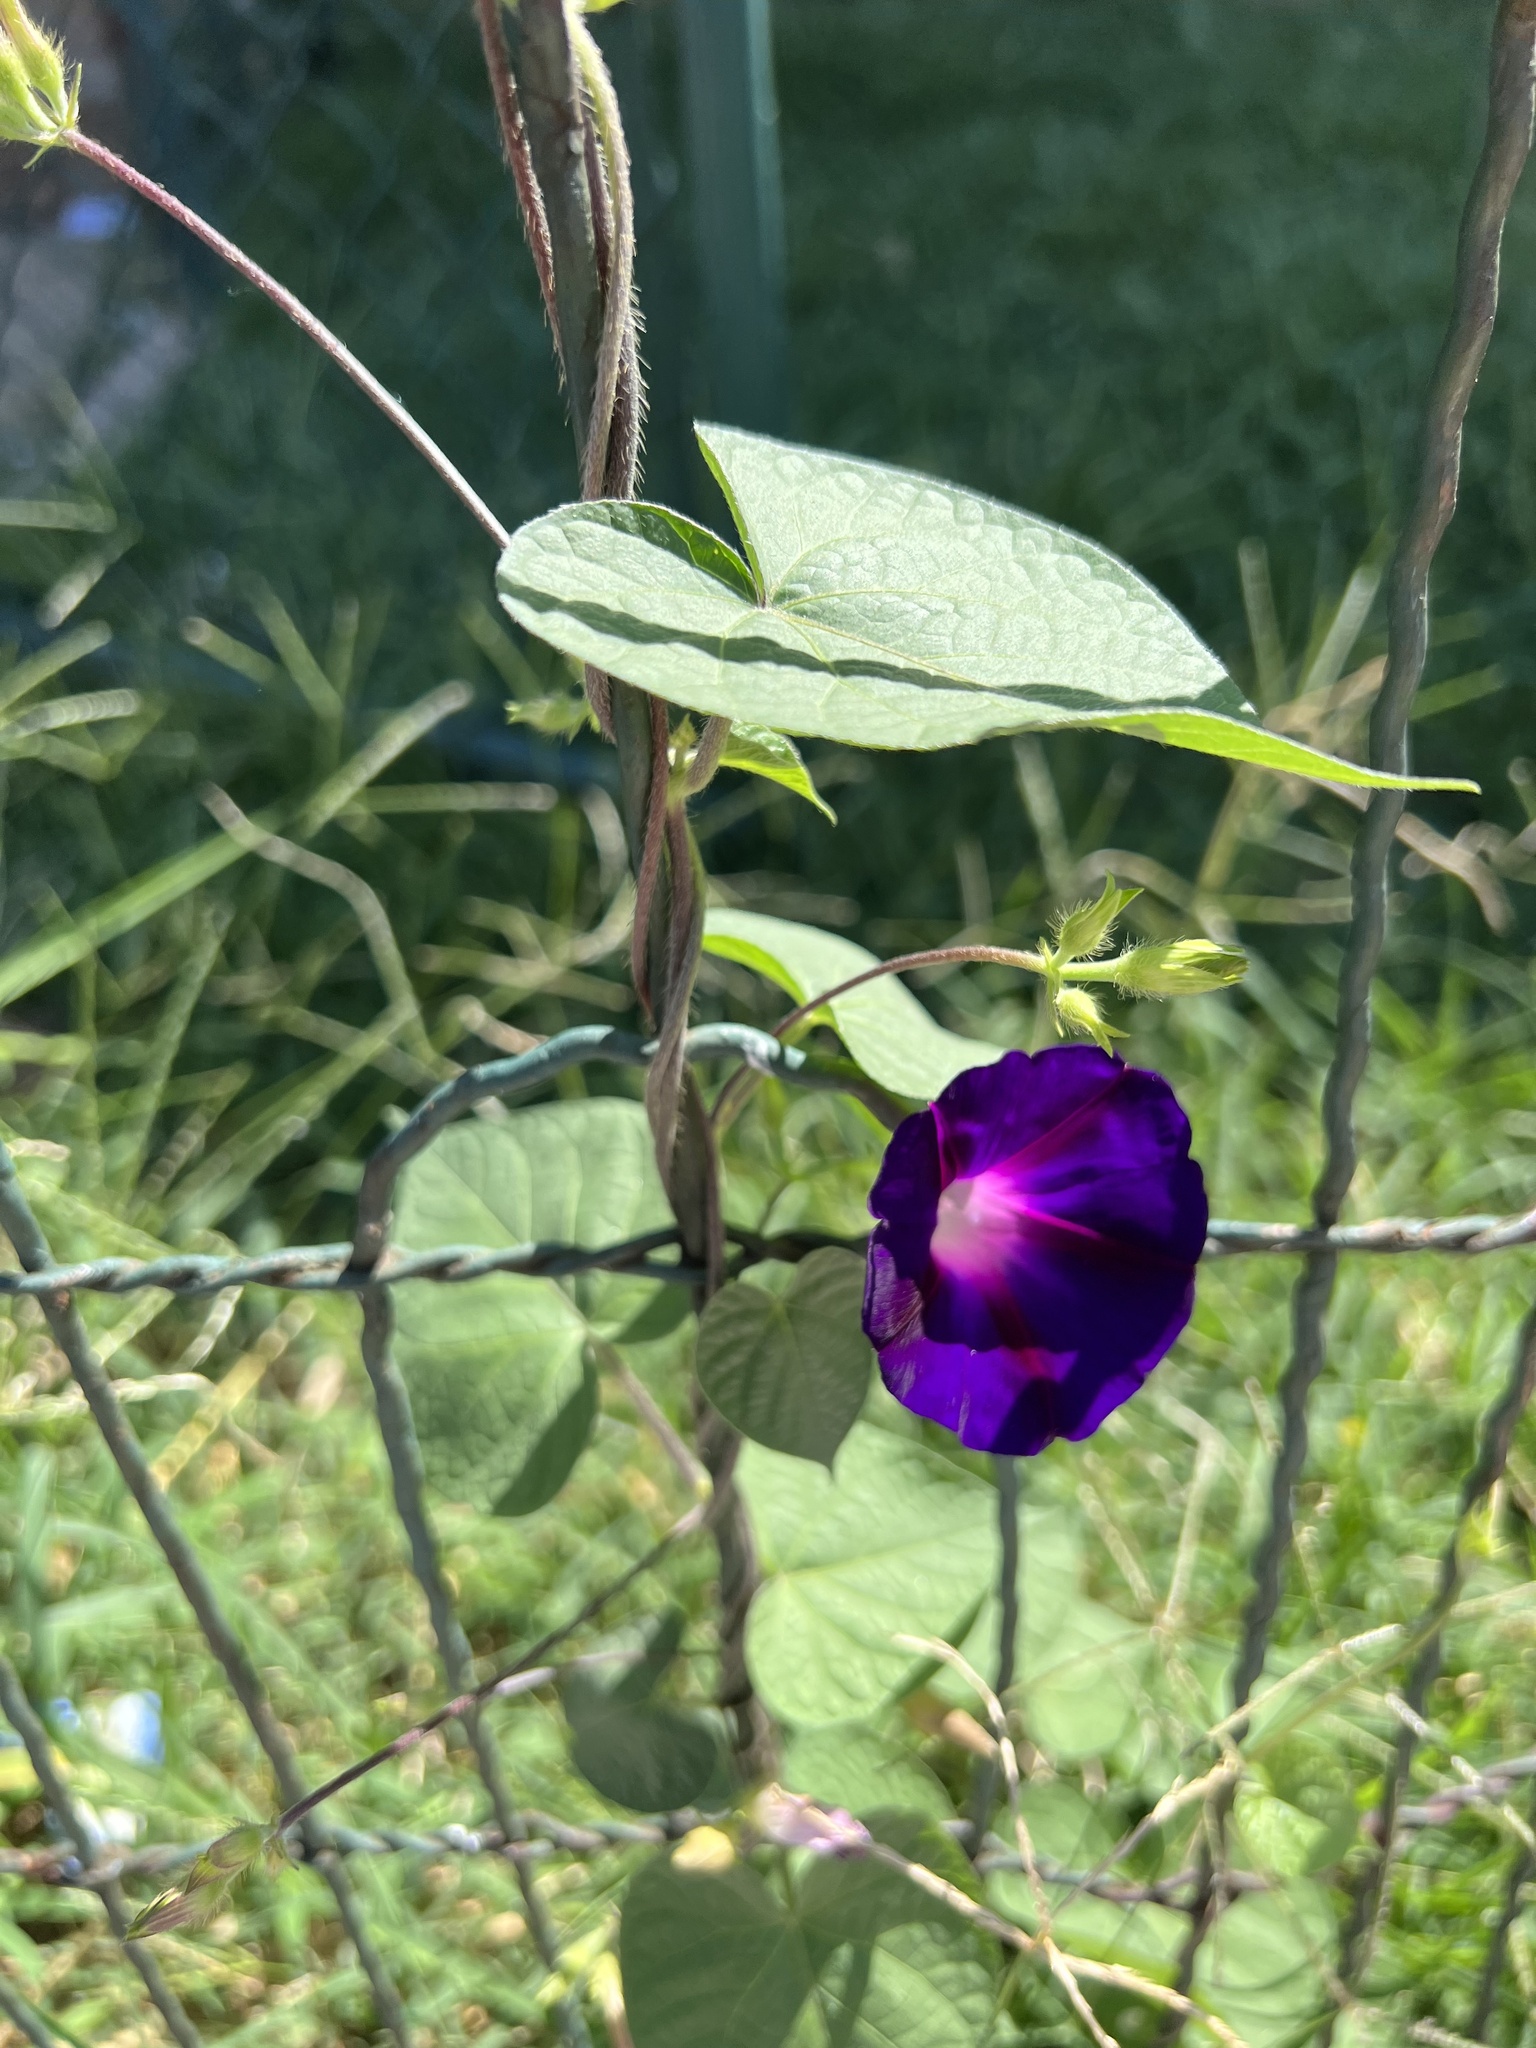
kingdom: Plantae
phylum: Tracheophyta
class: Magnoliopsida
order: Solanales
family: Convolvulaceae
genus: Ipomoea
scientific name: Ipomoea purpurea
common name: Common morning-glory
